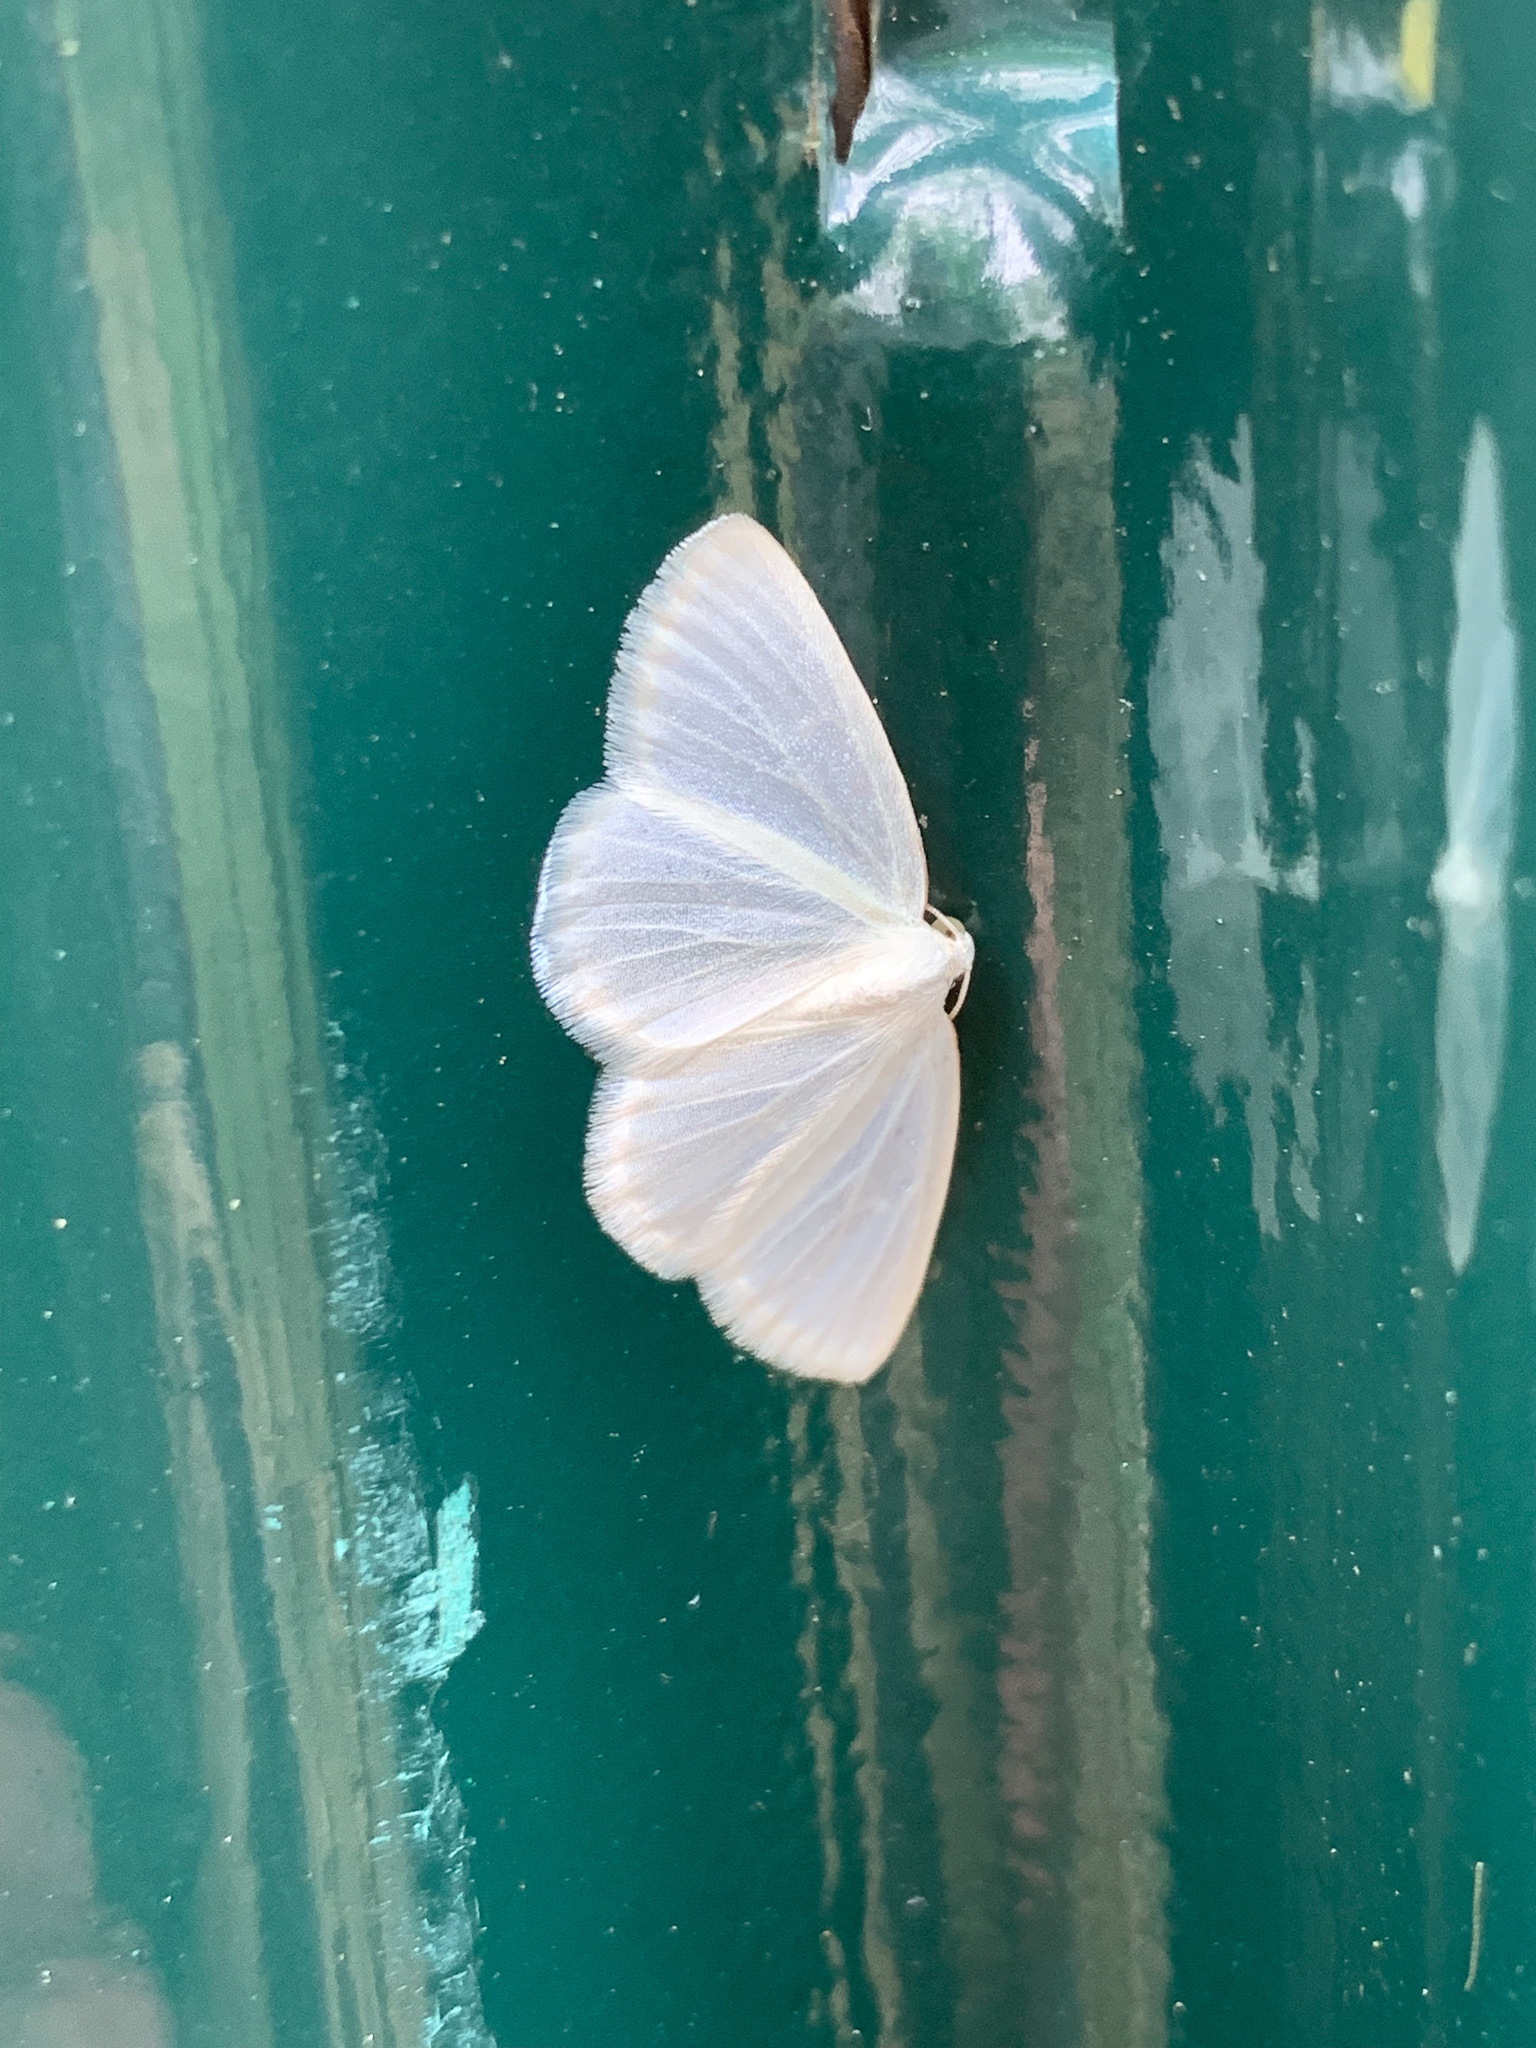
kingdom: Animalia
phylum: Arthropoda
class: Insecta
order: Lepidoptera
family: Geometridae
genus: Lomographa
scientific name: Lomographa vestaliata
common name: White spring moth
